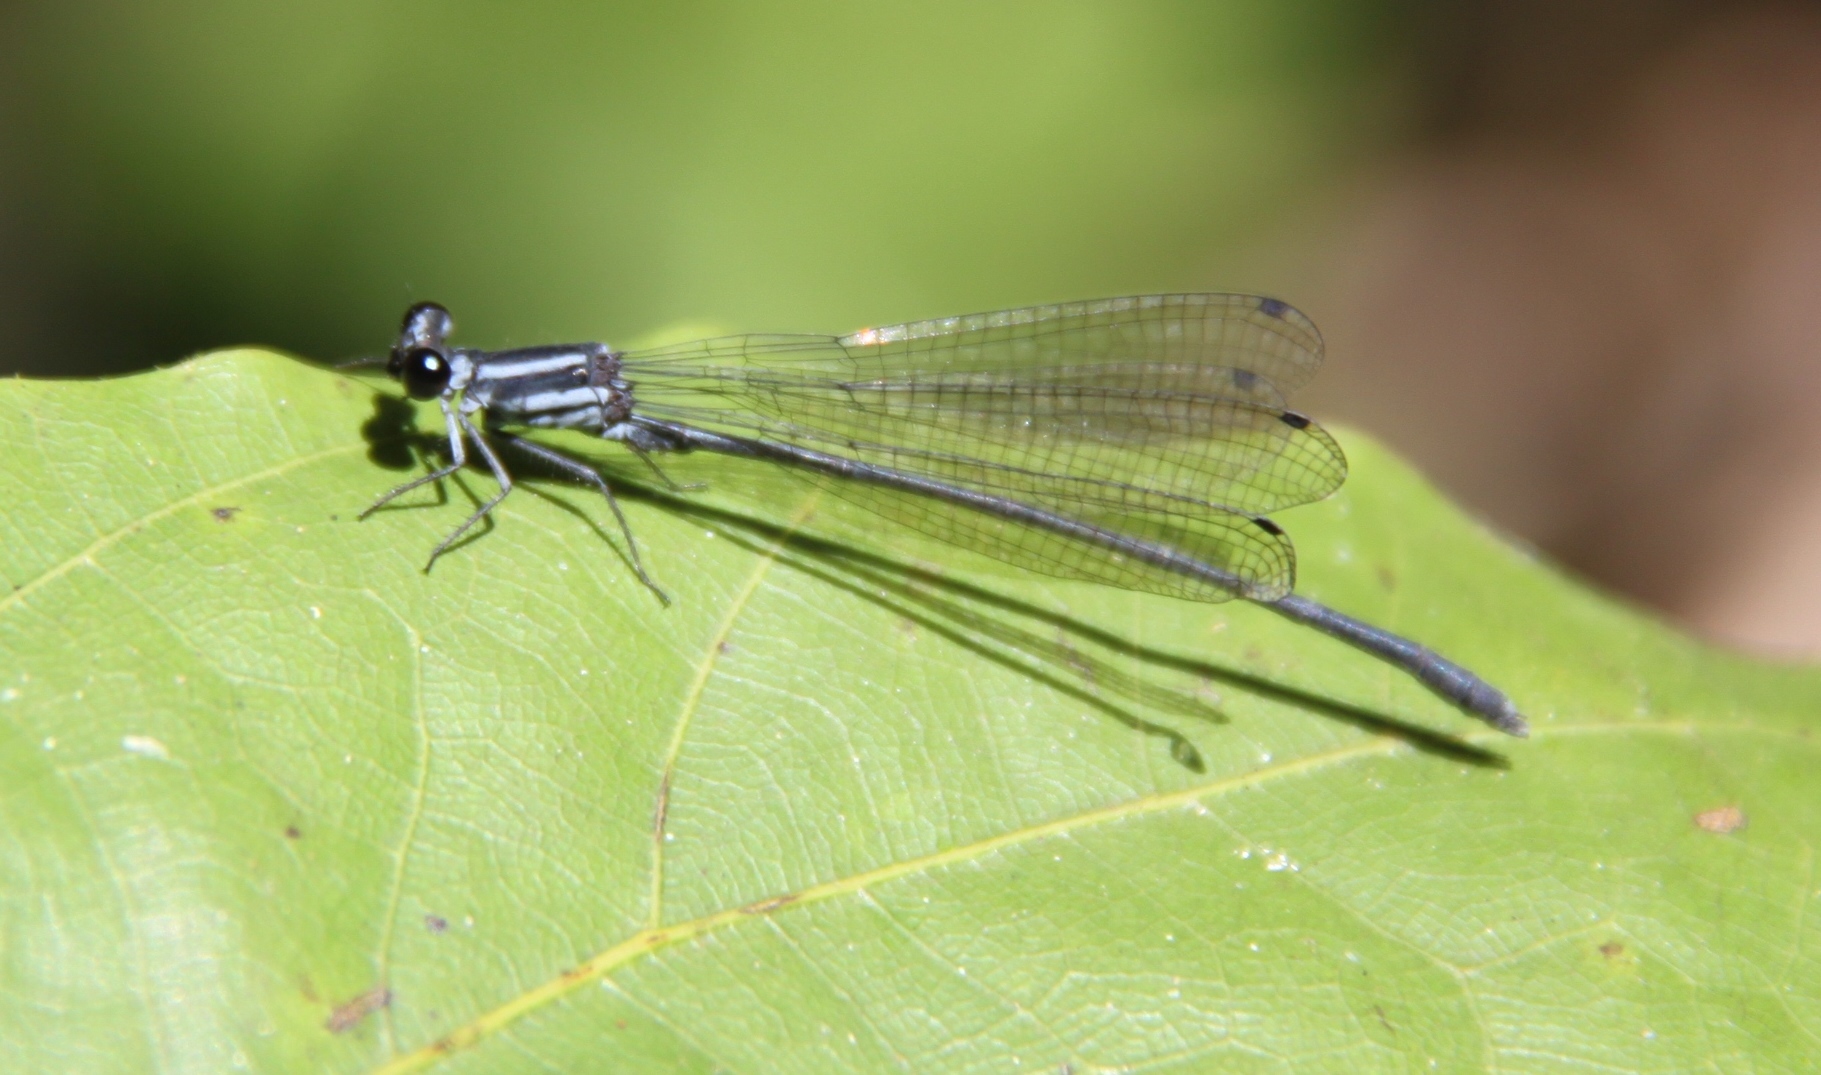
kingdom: Animalia
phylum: Arthropoda
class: Insecta
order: Odonata
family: Platycnemididae
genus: Calicnemia
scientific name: Calicnemia imitans
